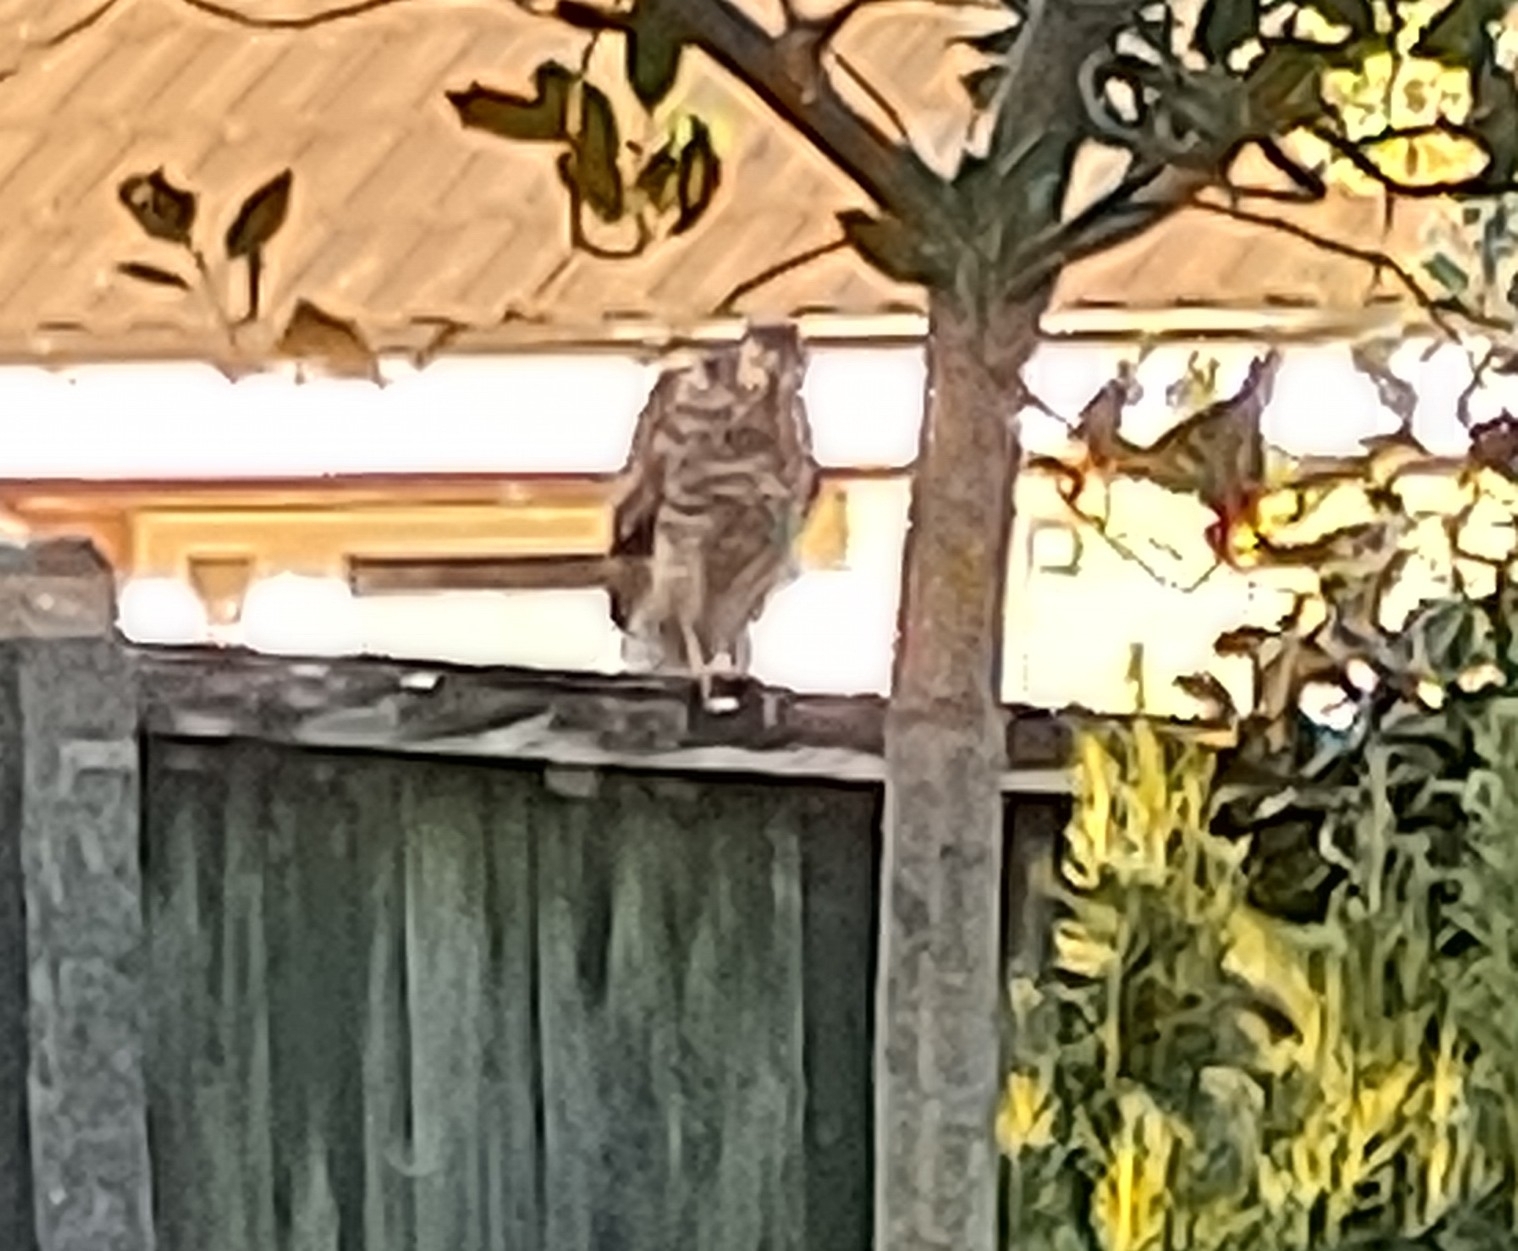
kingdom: Animalia
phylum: Chordata
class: Aves
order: Accipitriformes
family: Accipitridae
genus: Accipiter
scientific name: Accipiter nisus
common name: Eurasian sparrowhawk
